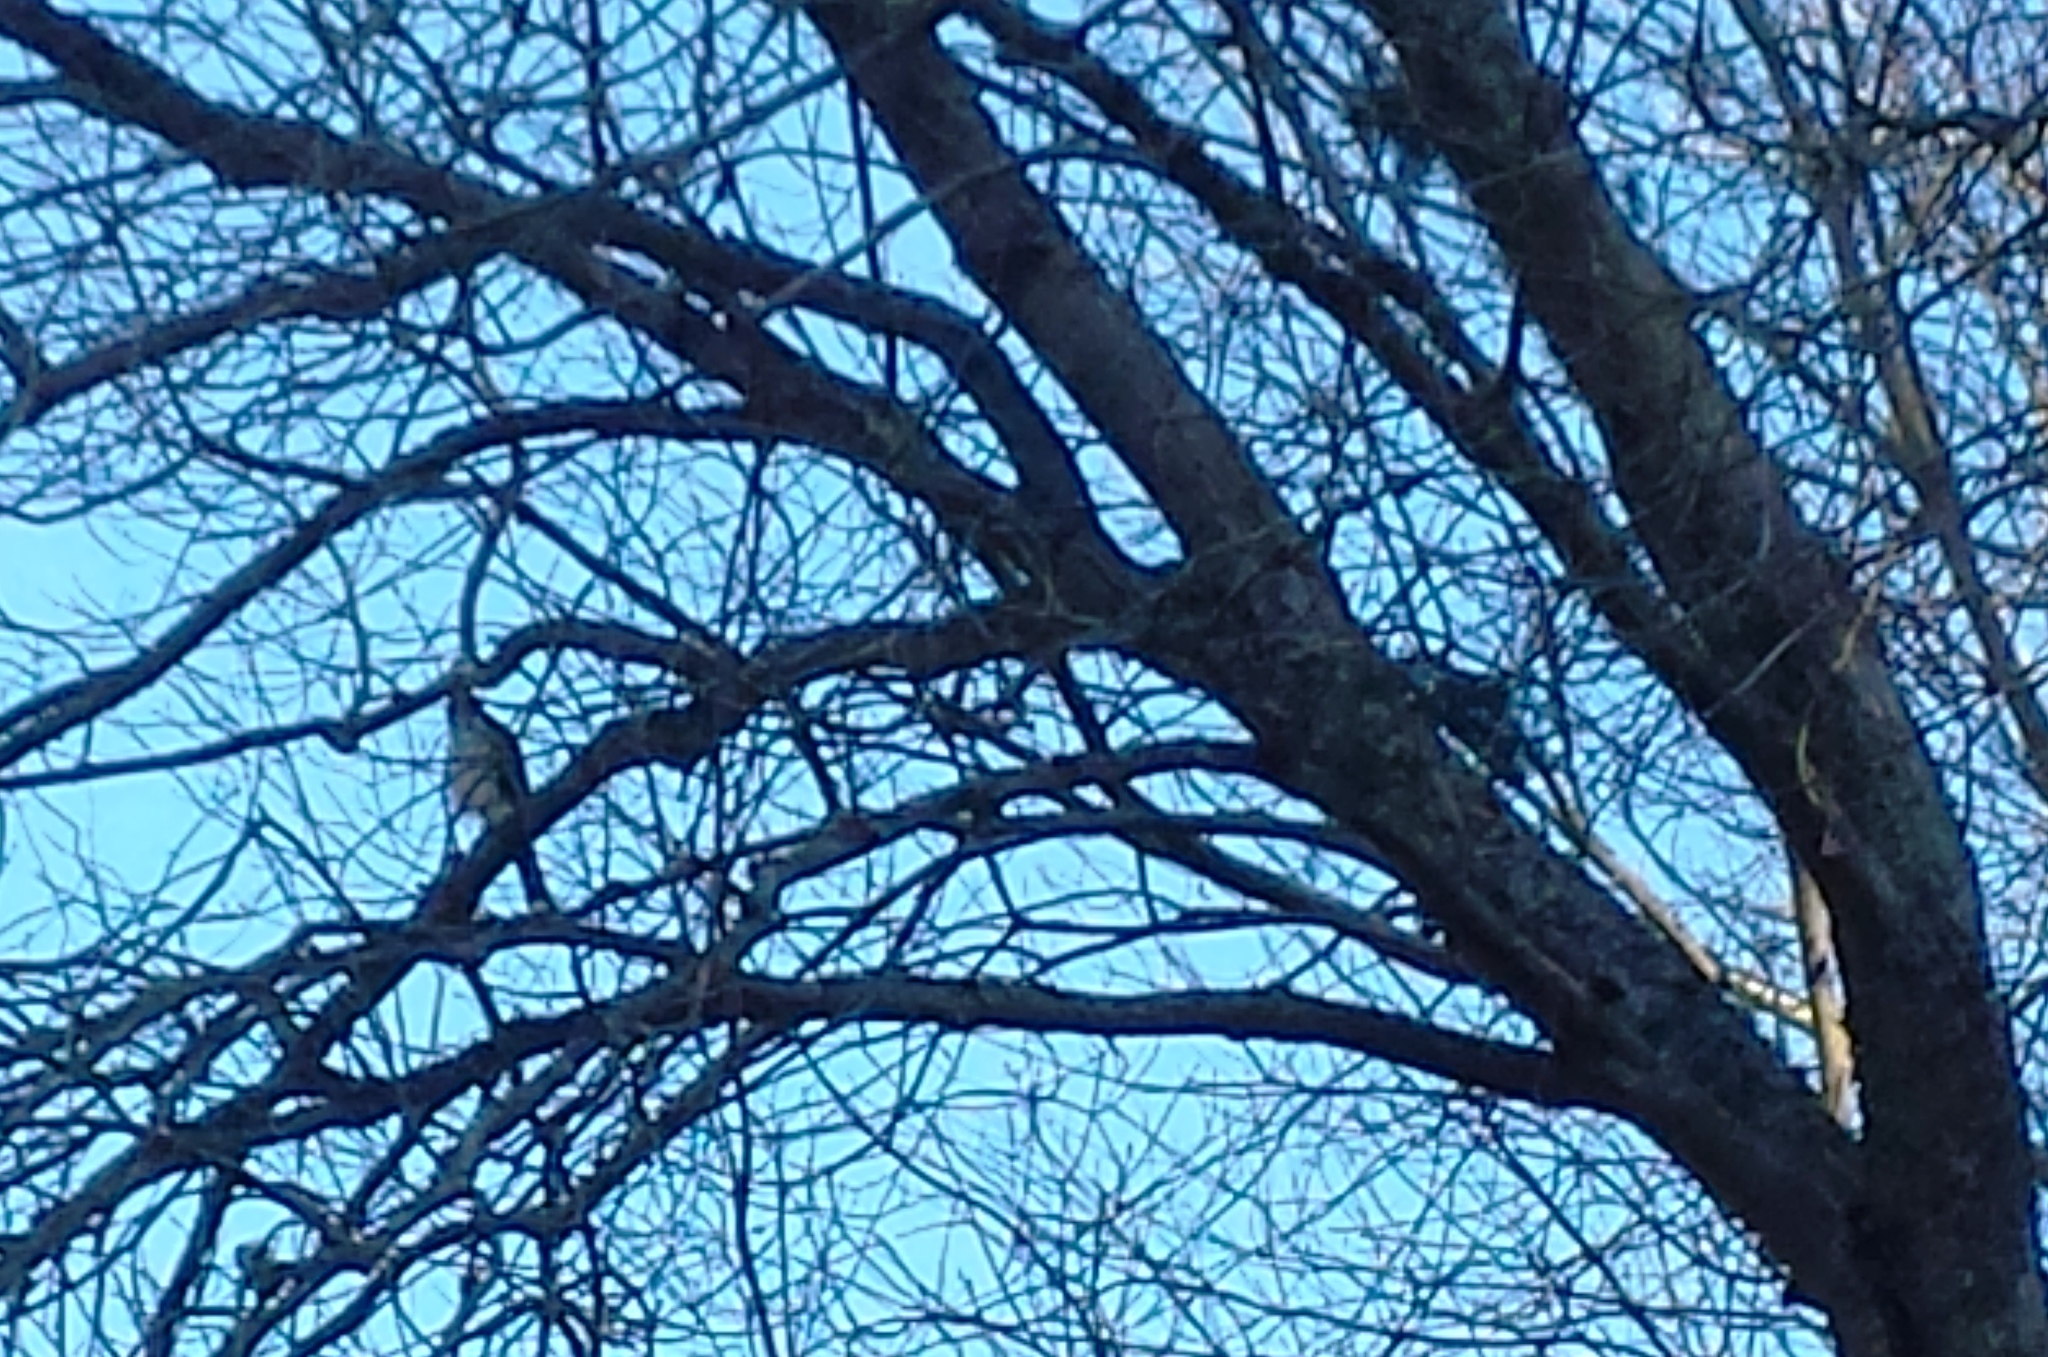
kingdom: Animalia
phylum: Chordata
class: Aves
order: Accipitriformes
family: Accipitridae
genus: Accipiter
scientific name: Accipiter
